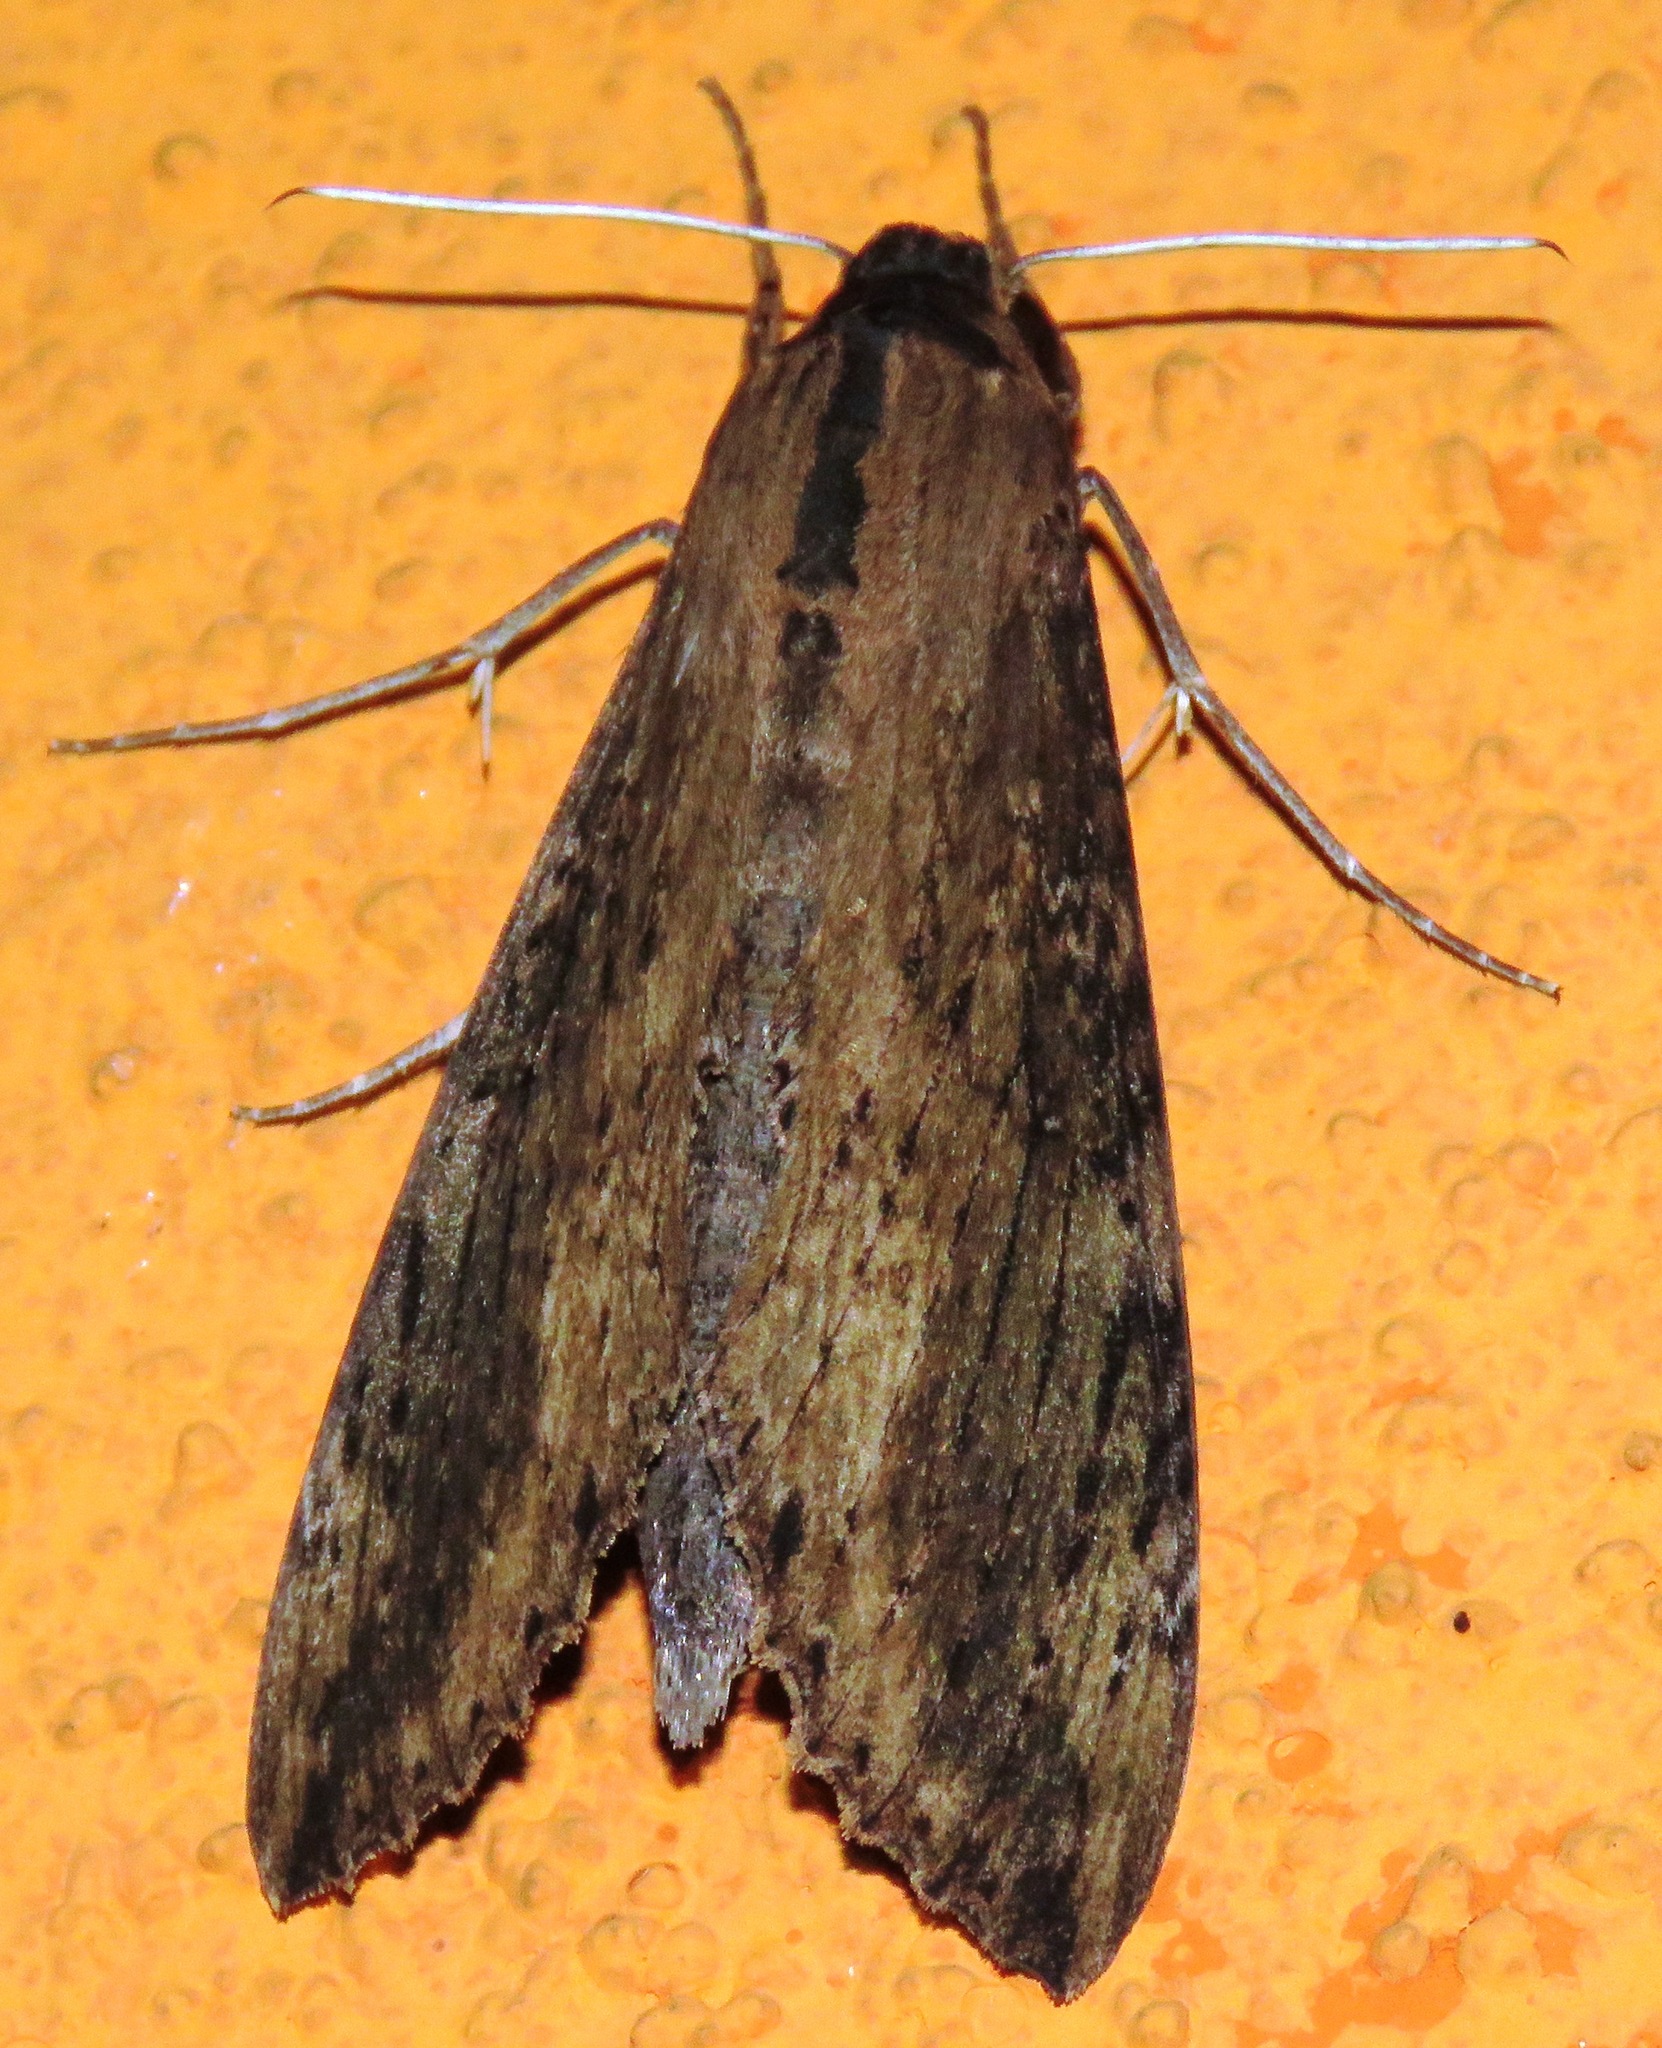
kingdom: Animalia
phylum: Arthropoda
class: Insecta
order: Lepidoptera
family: Sphingidae
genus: Erinnyis
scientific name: Erinnyis crameri
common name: Cramer's sphinx
